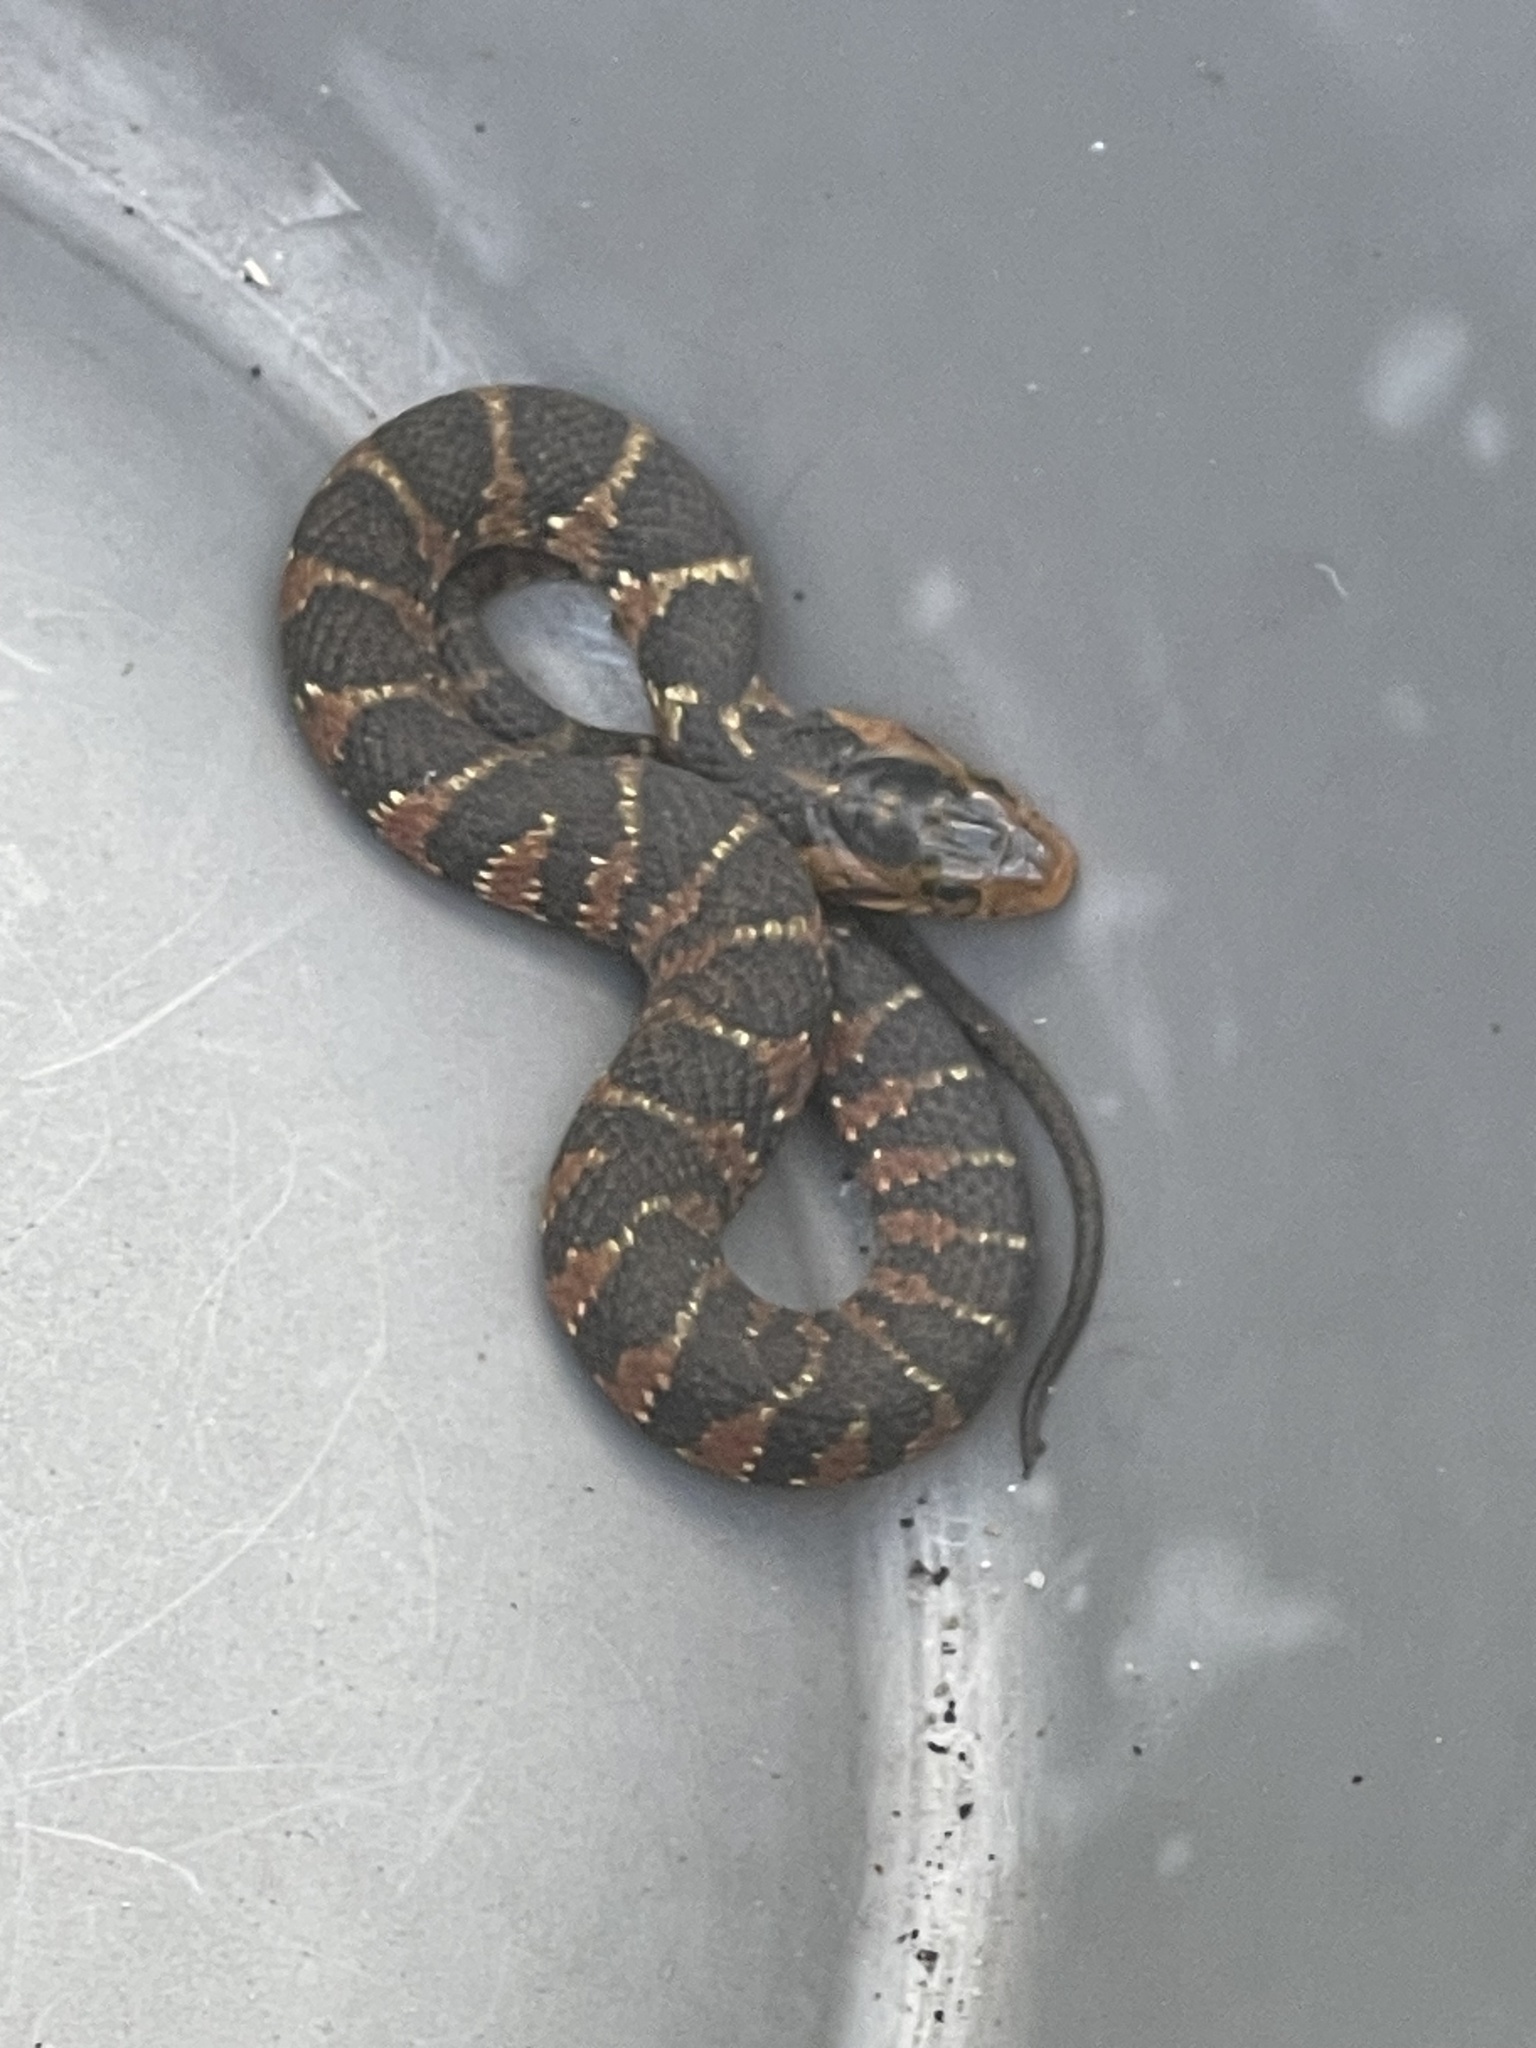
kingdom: Animalia
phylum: Chordata
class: Squamata
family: Colubridae
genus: Nerodia
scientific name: Nerodia fasciata
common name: Southern water snake
